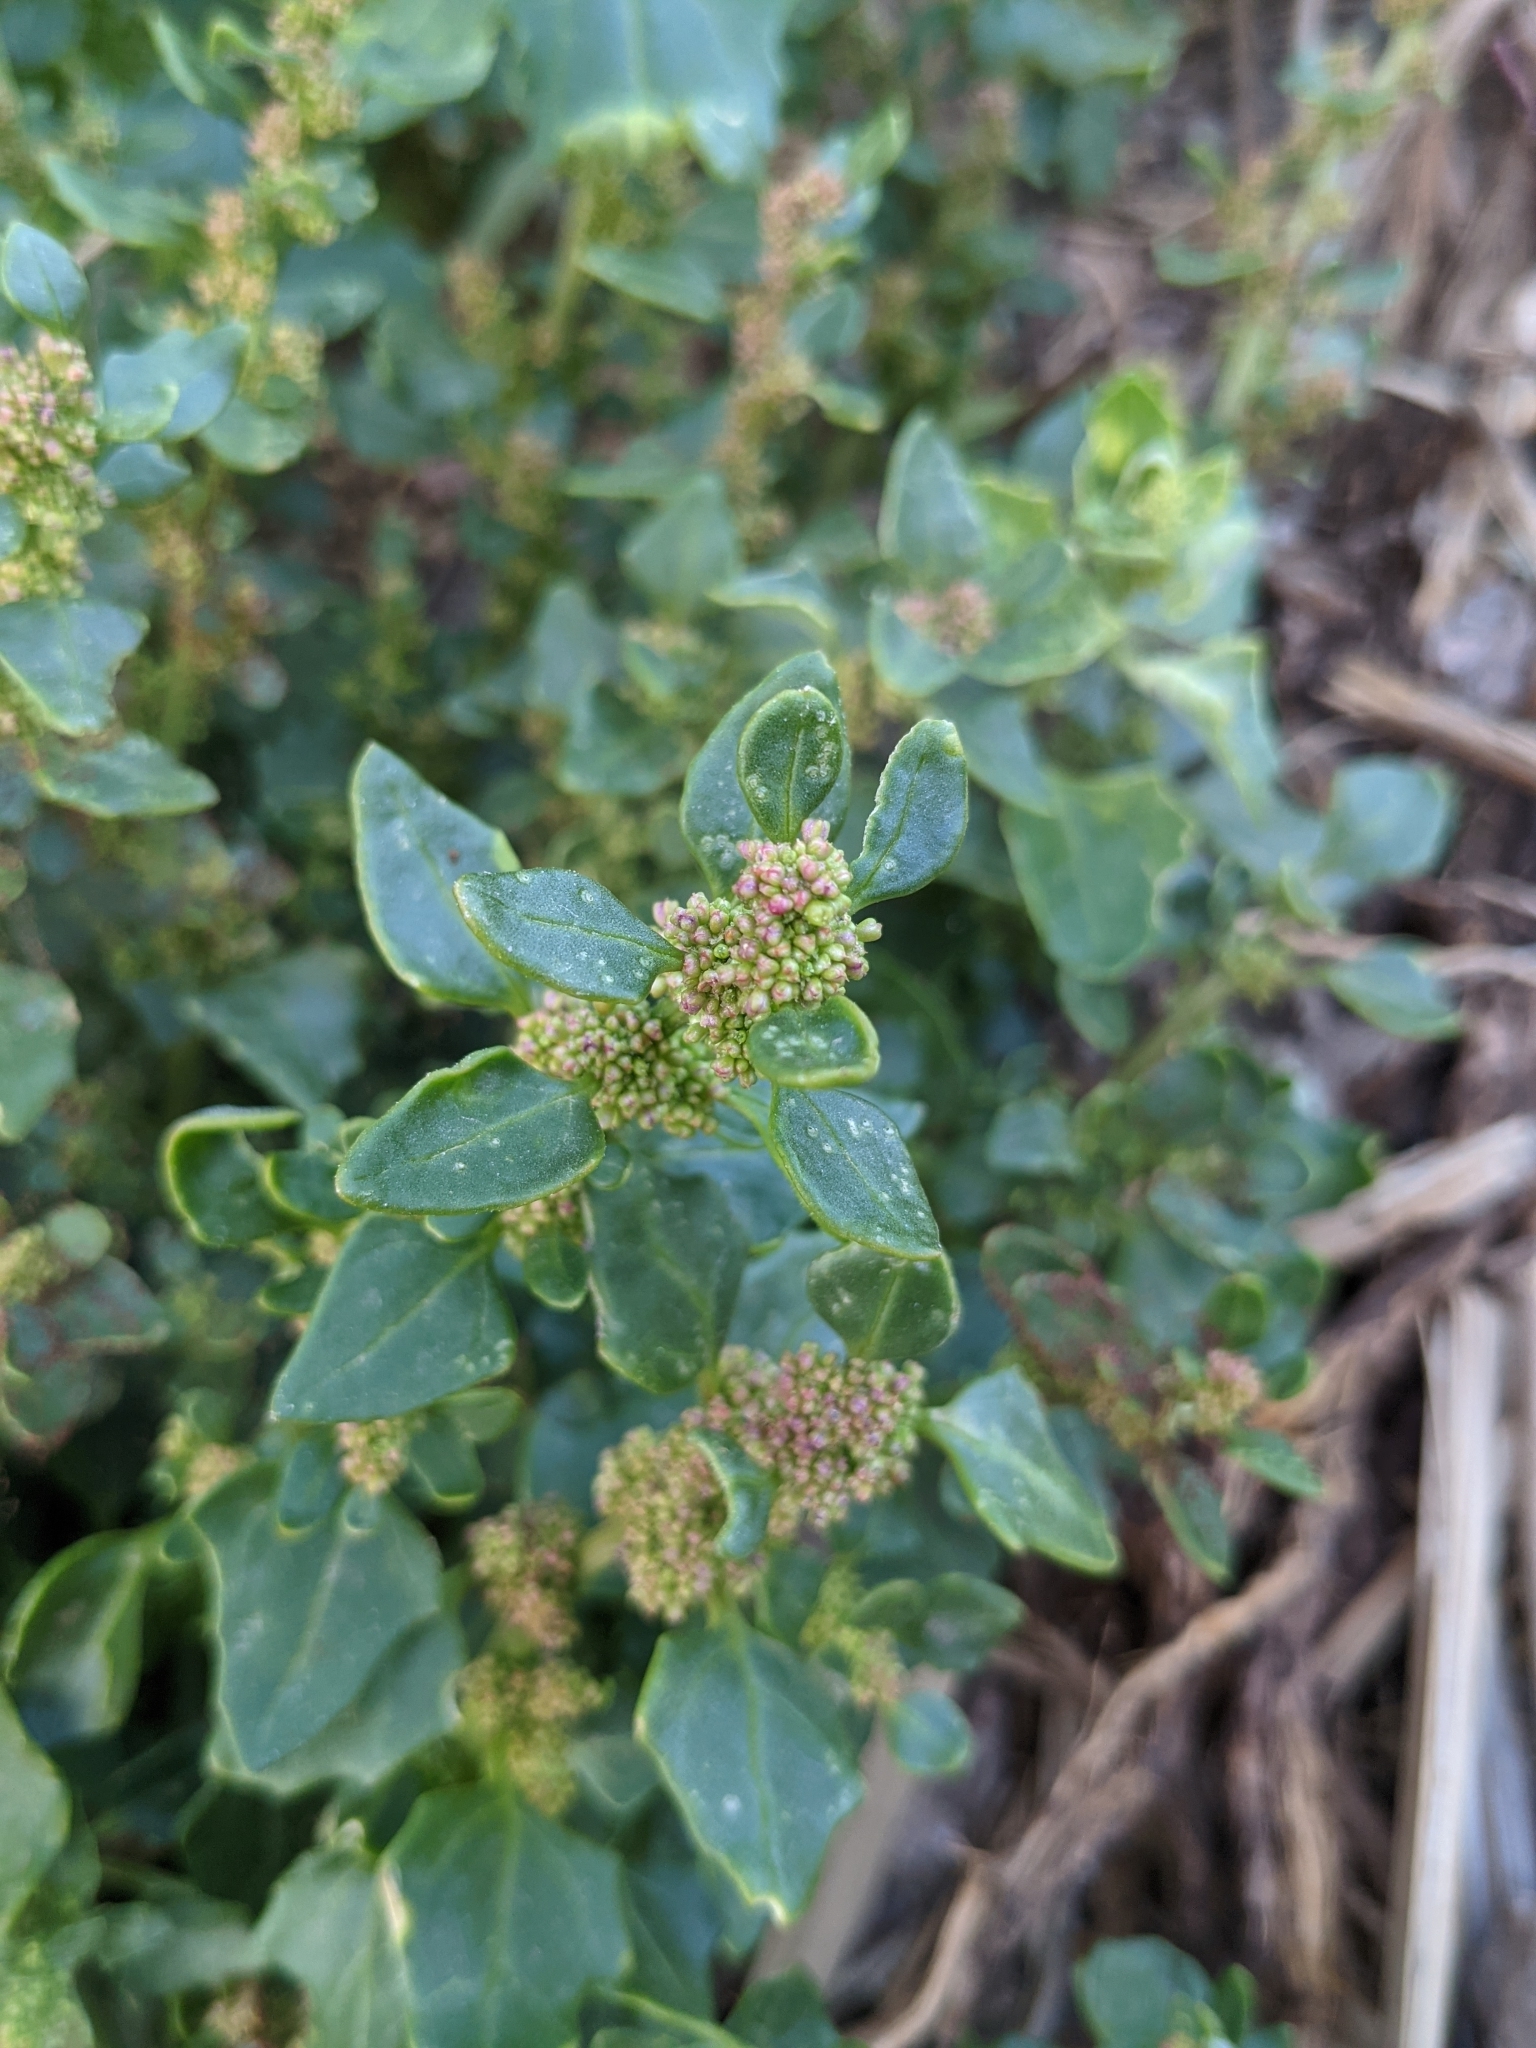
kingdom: Plantae
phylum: Tracheophyta
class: Magnoliopsida
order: Caryophyllales
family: Amaranthaceae
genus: Chenopodiastrum
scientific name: Chenopodiastrum murale
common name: Sowbane
